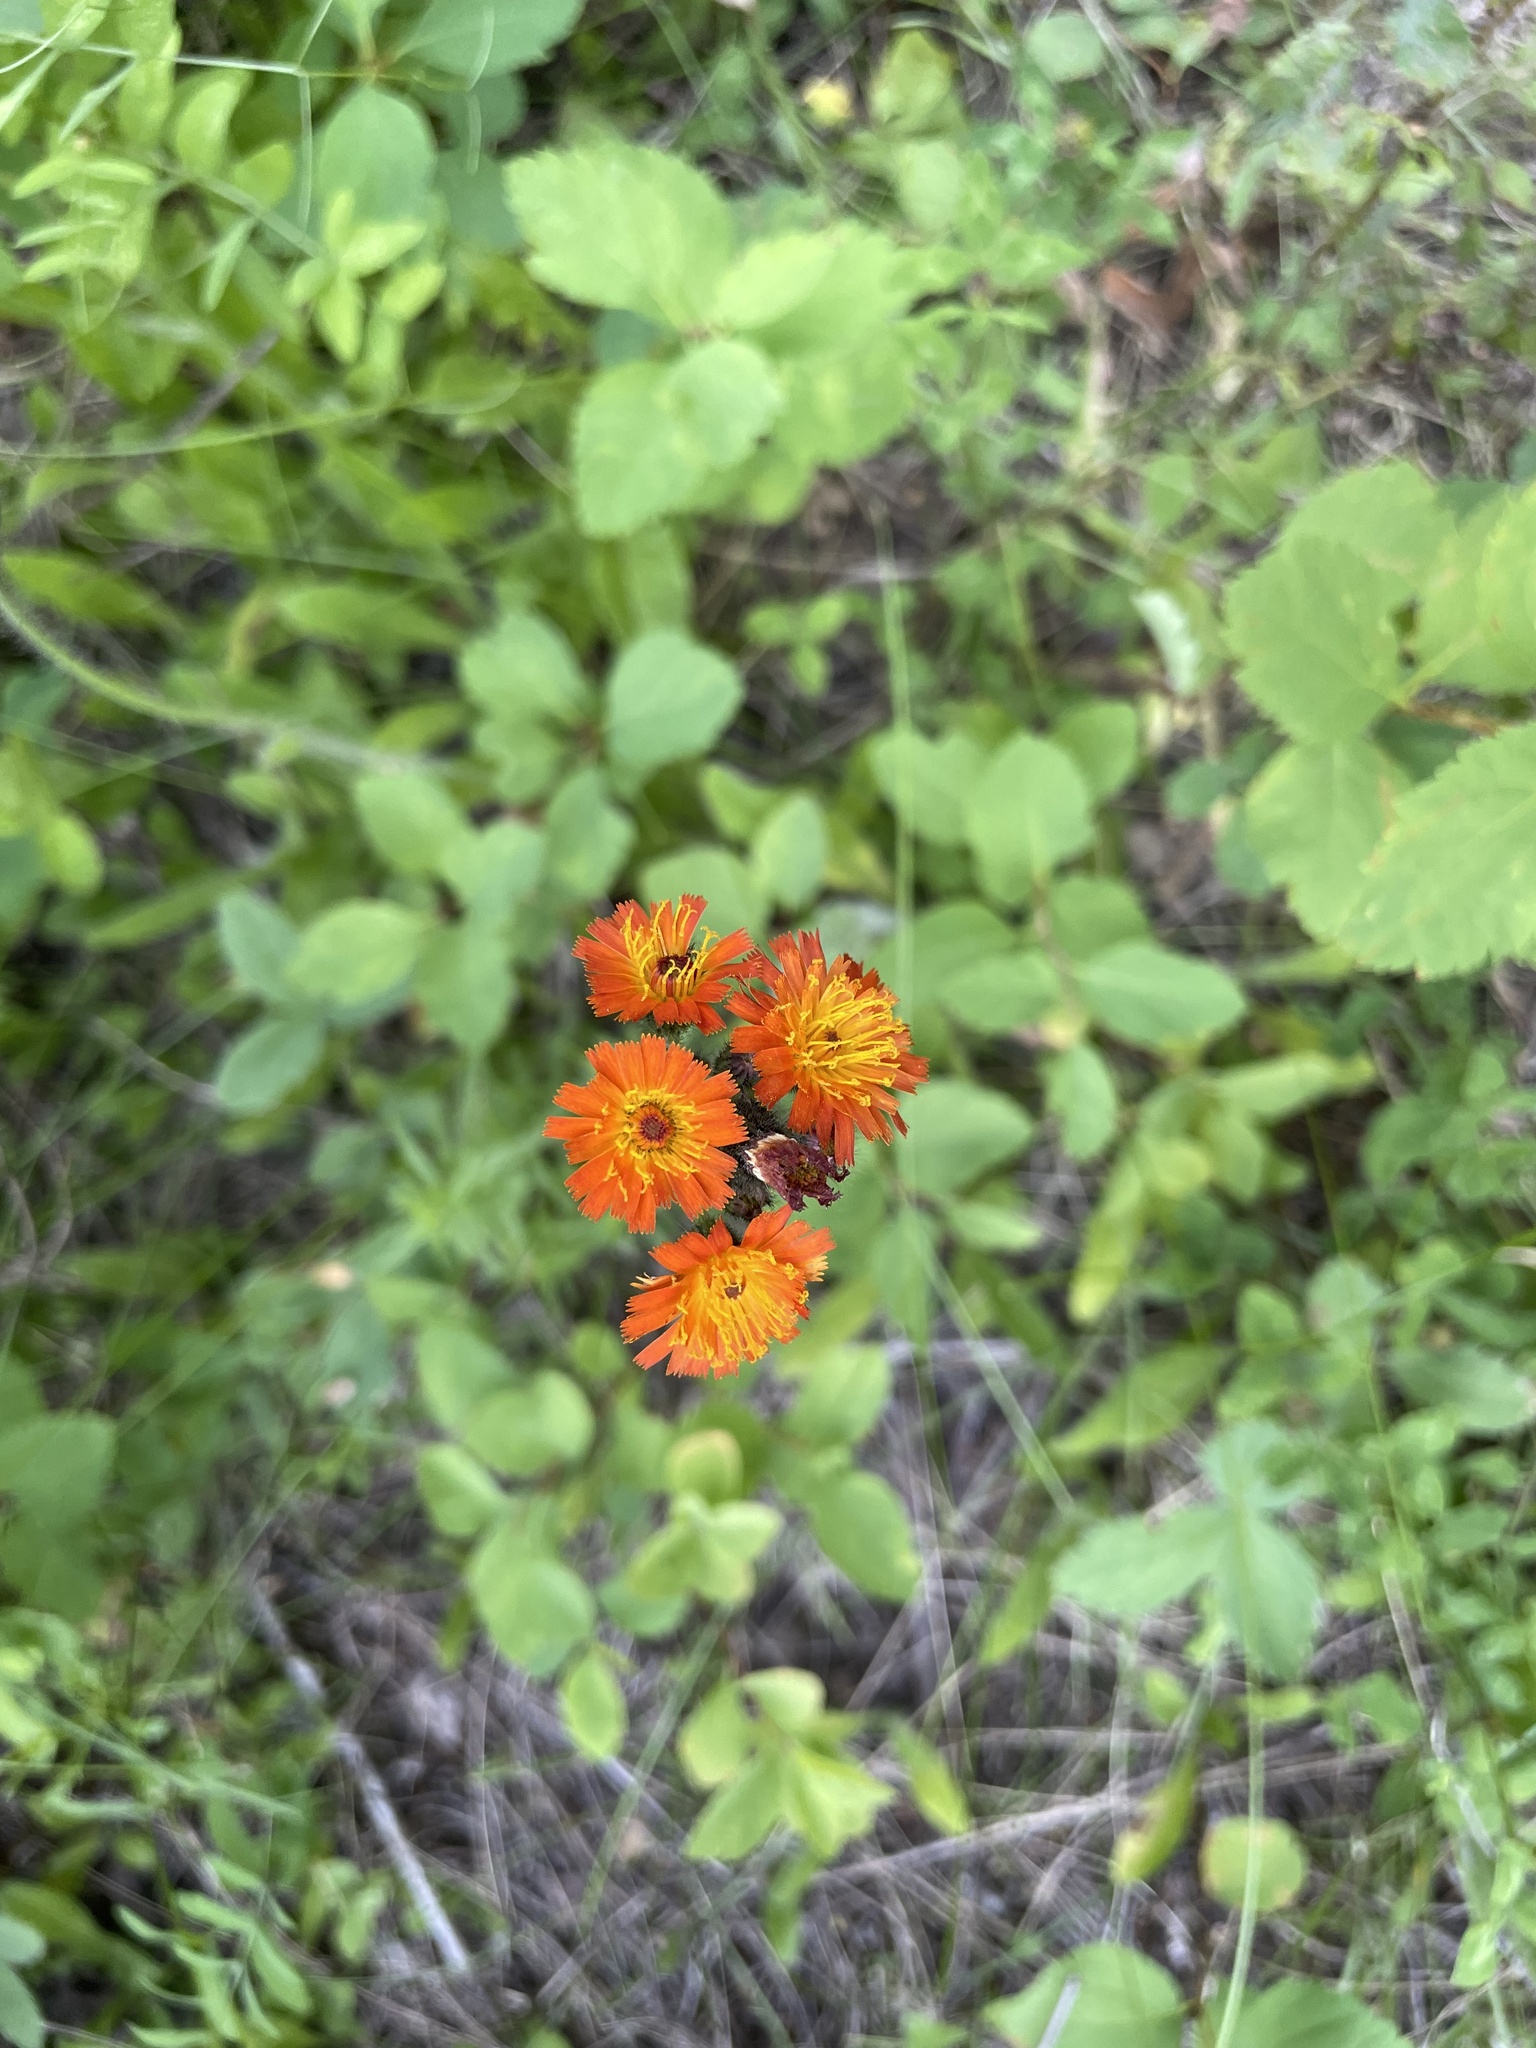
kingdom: Plantae
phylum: Tracheophyta
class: Magnoliopsida
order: Asterales
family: Asteraceae
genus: Pilosella
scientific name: Pilosella aurantiaca
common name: Fox-and-cubs
